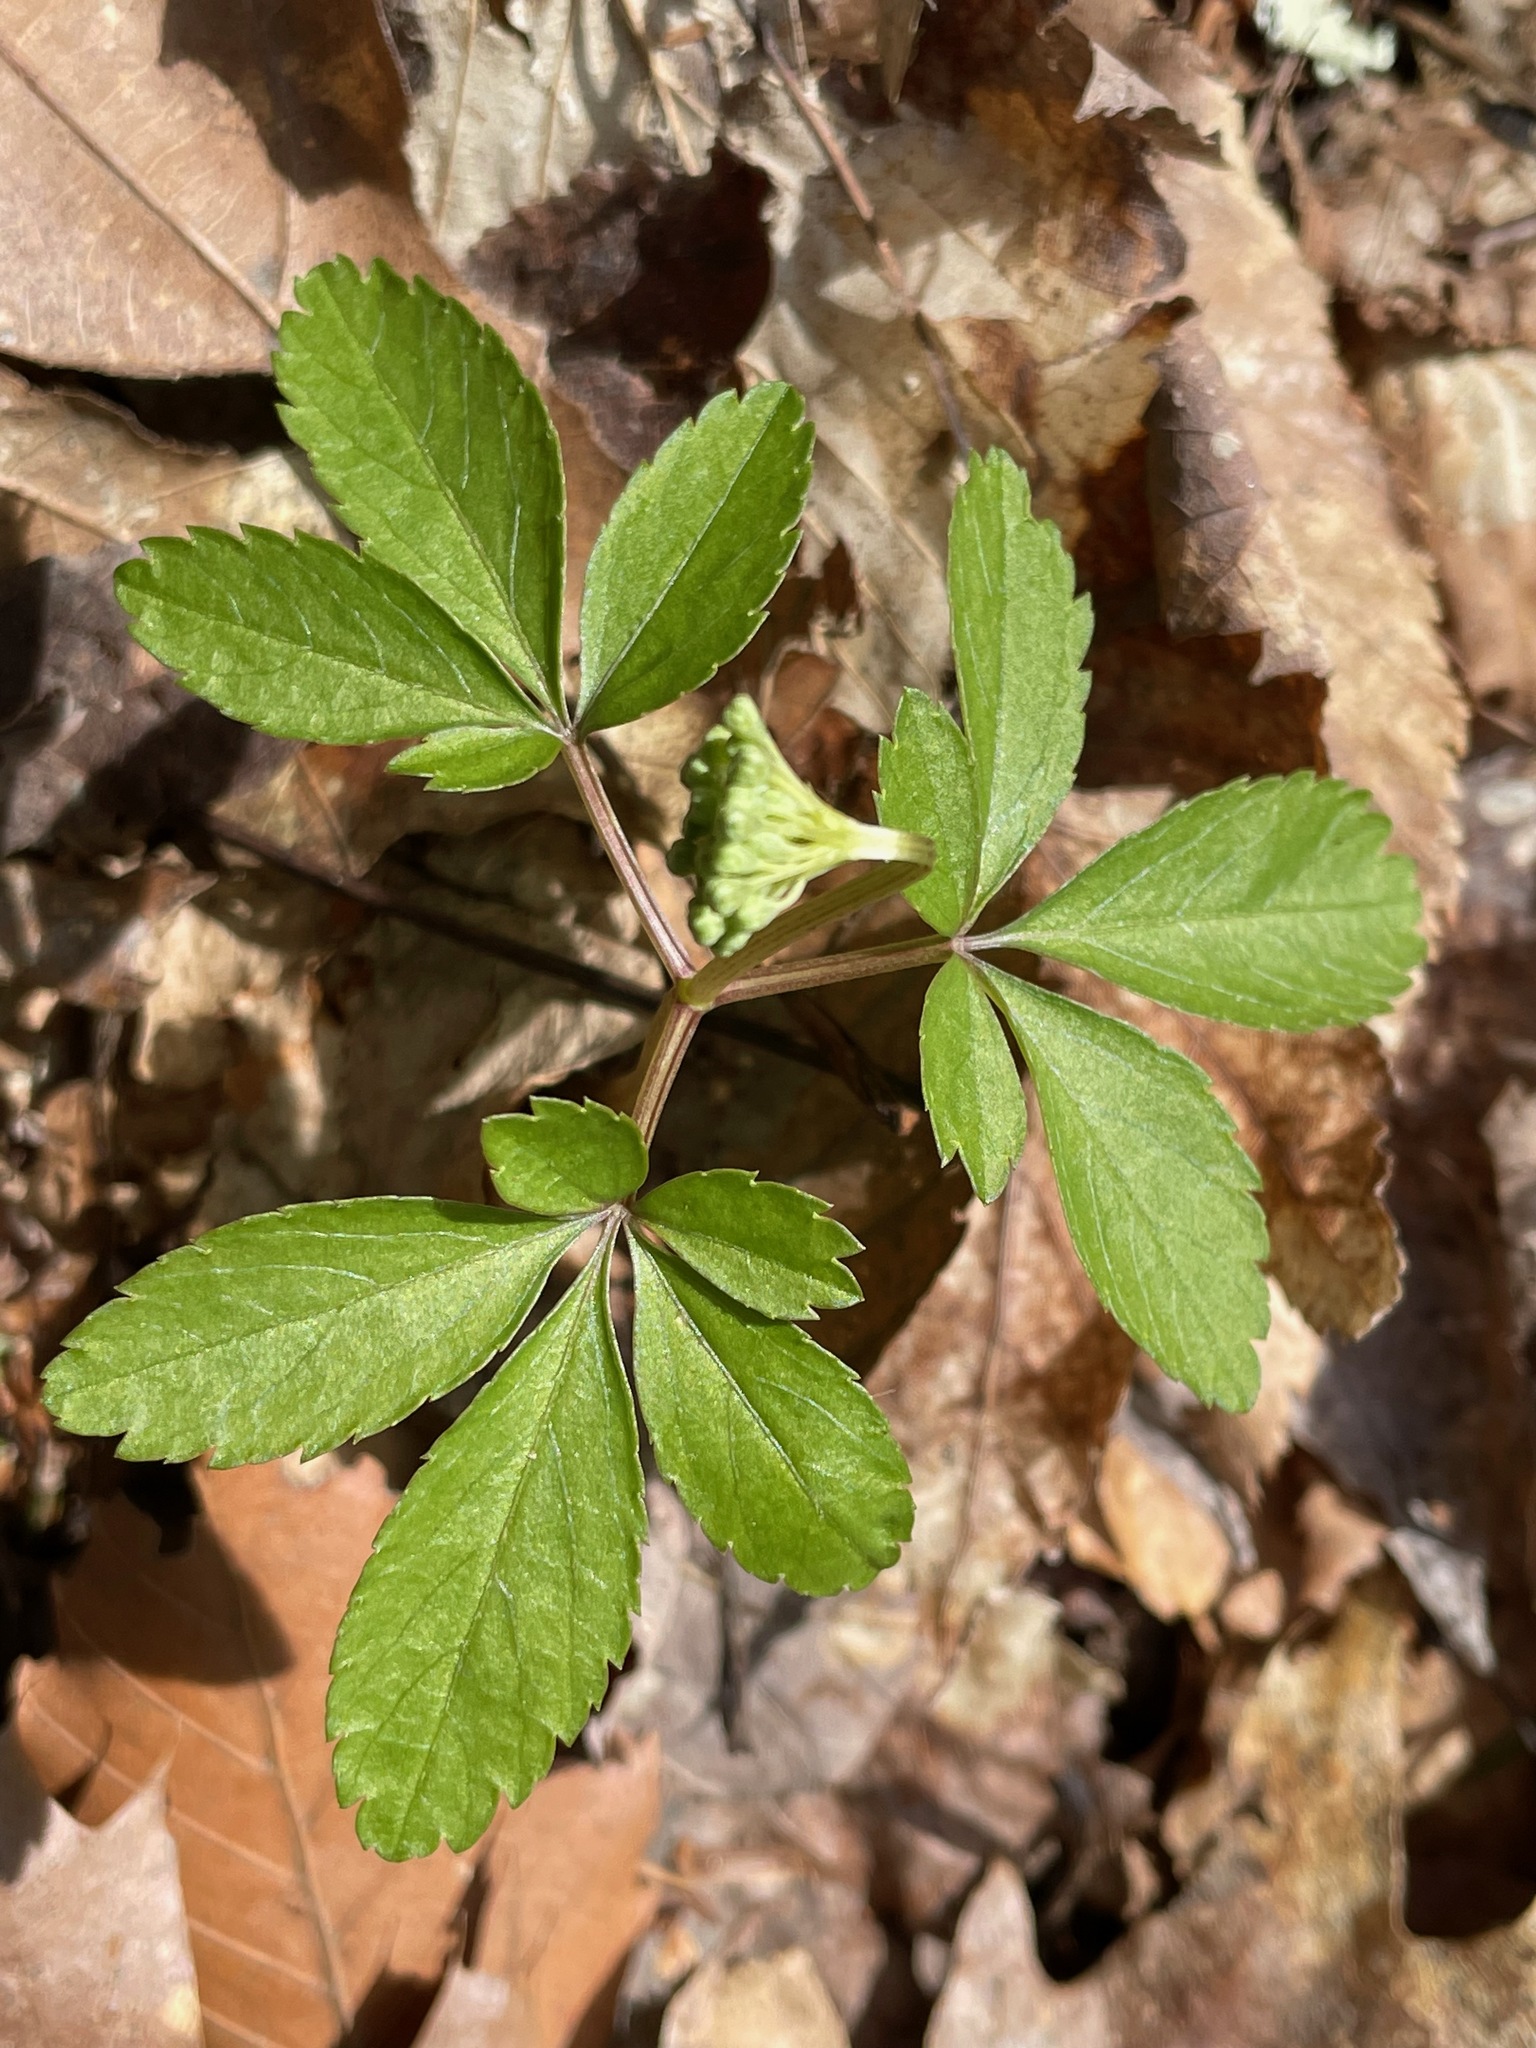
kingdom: Plantae
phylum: Tracheophyta
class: Magnoliopsida
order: Apiales
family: Araliaceae
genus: Panax
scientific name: Panax trifolius
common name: Dwarf ginseng
